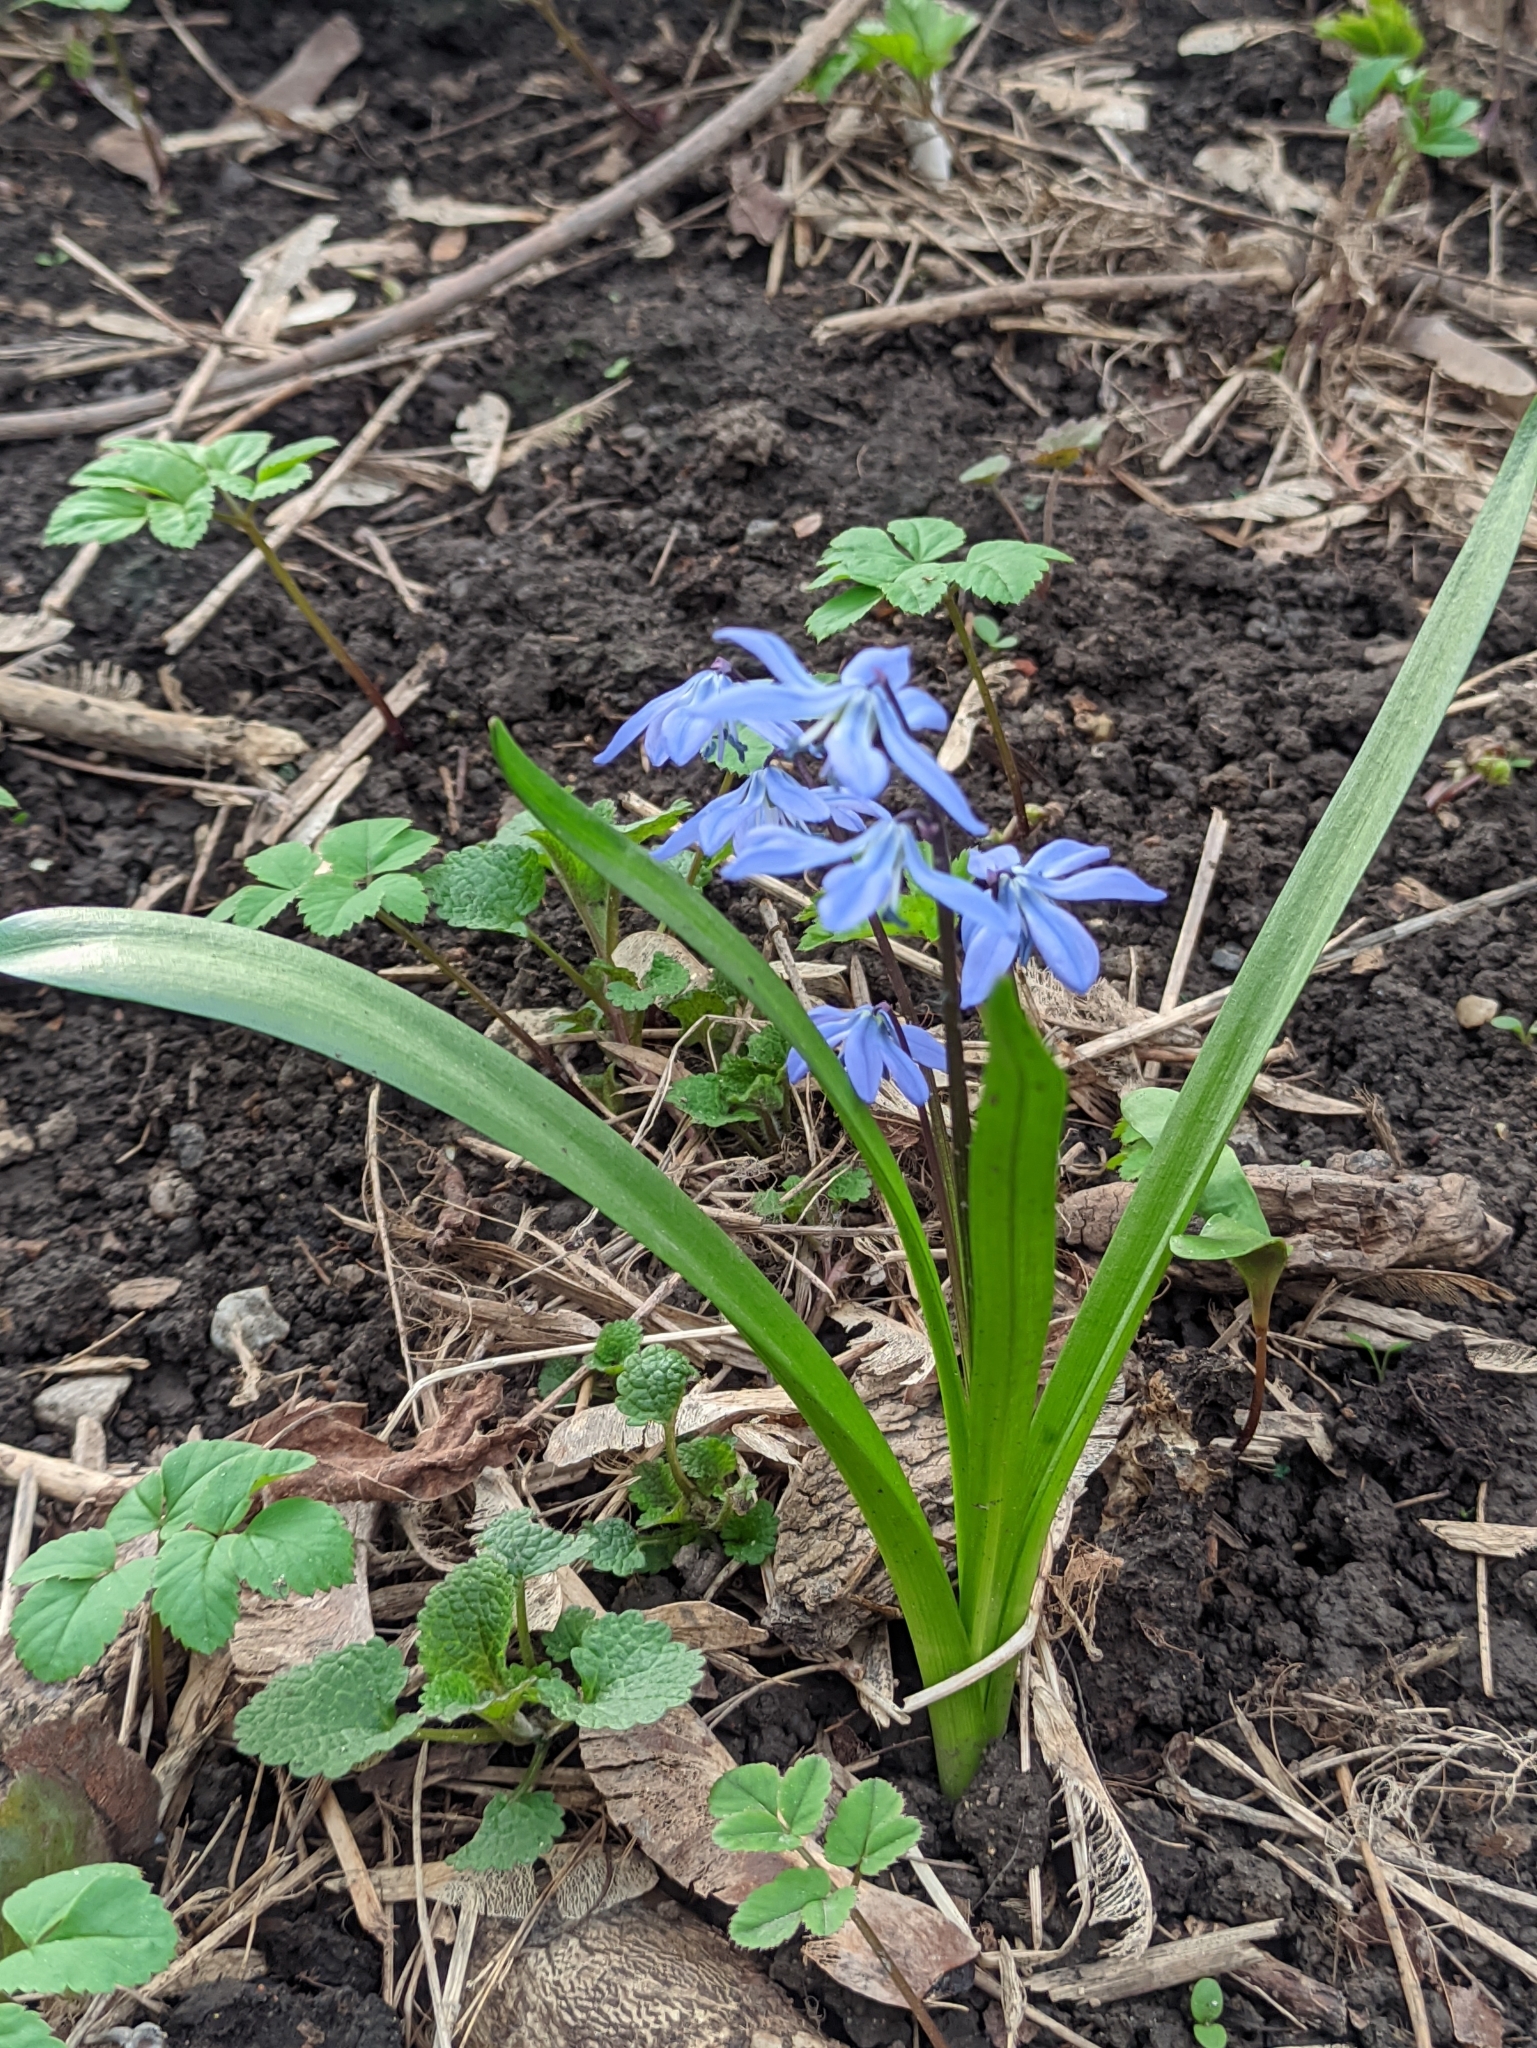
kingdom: Plantae
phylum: Tracheophyta
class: Liliopsida
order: Asparagales
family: Asparagaceae
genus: Scilla
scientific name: Scilla siberica
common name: Siberian squill
